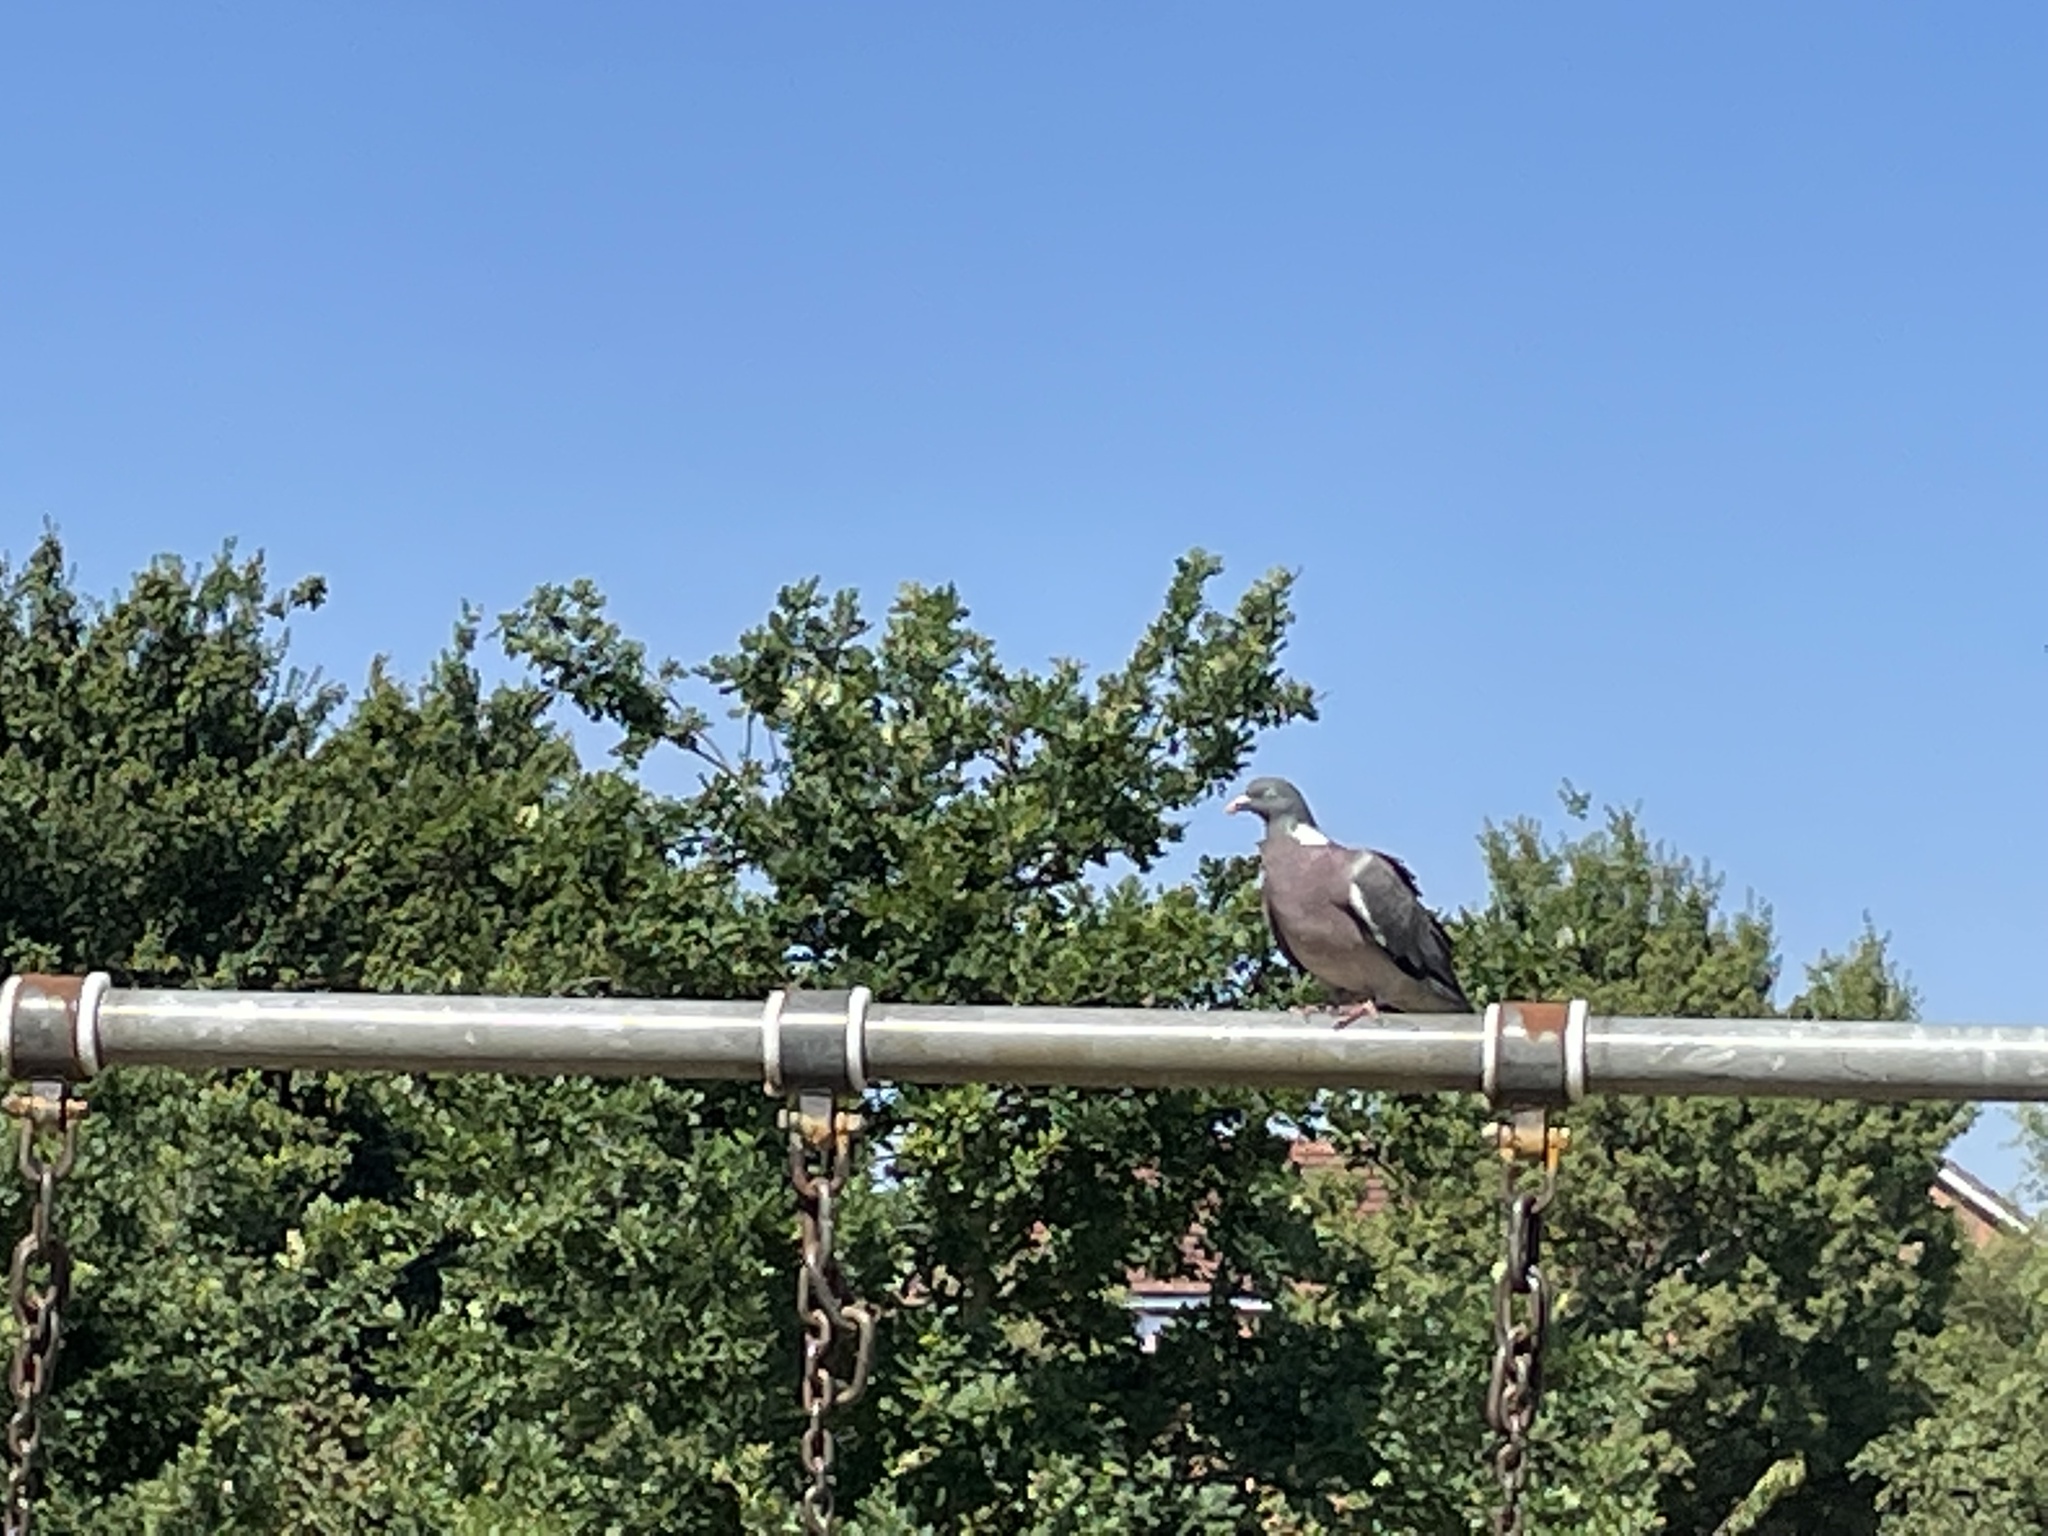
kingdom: Animalia
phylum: Chordata
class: Aves
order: Columbiformes
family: Columbidae
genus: Columba
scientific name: Columba palumbus
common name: Common wood pigeon
